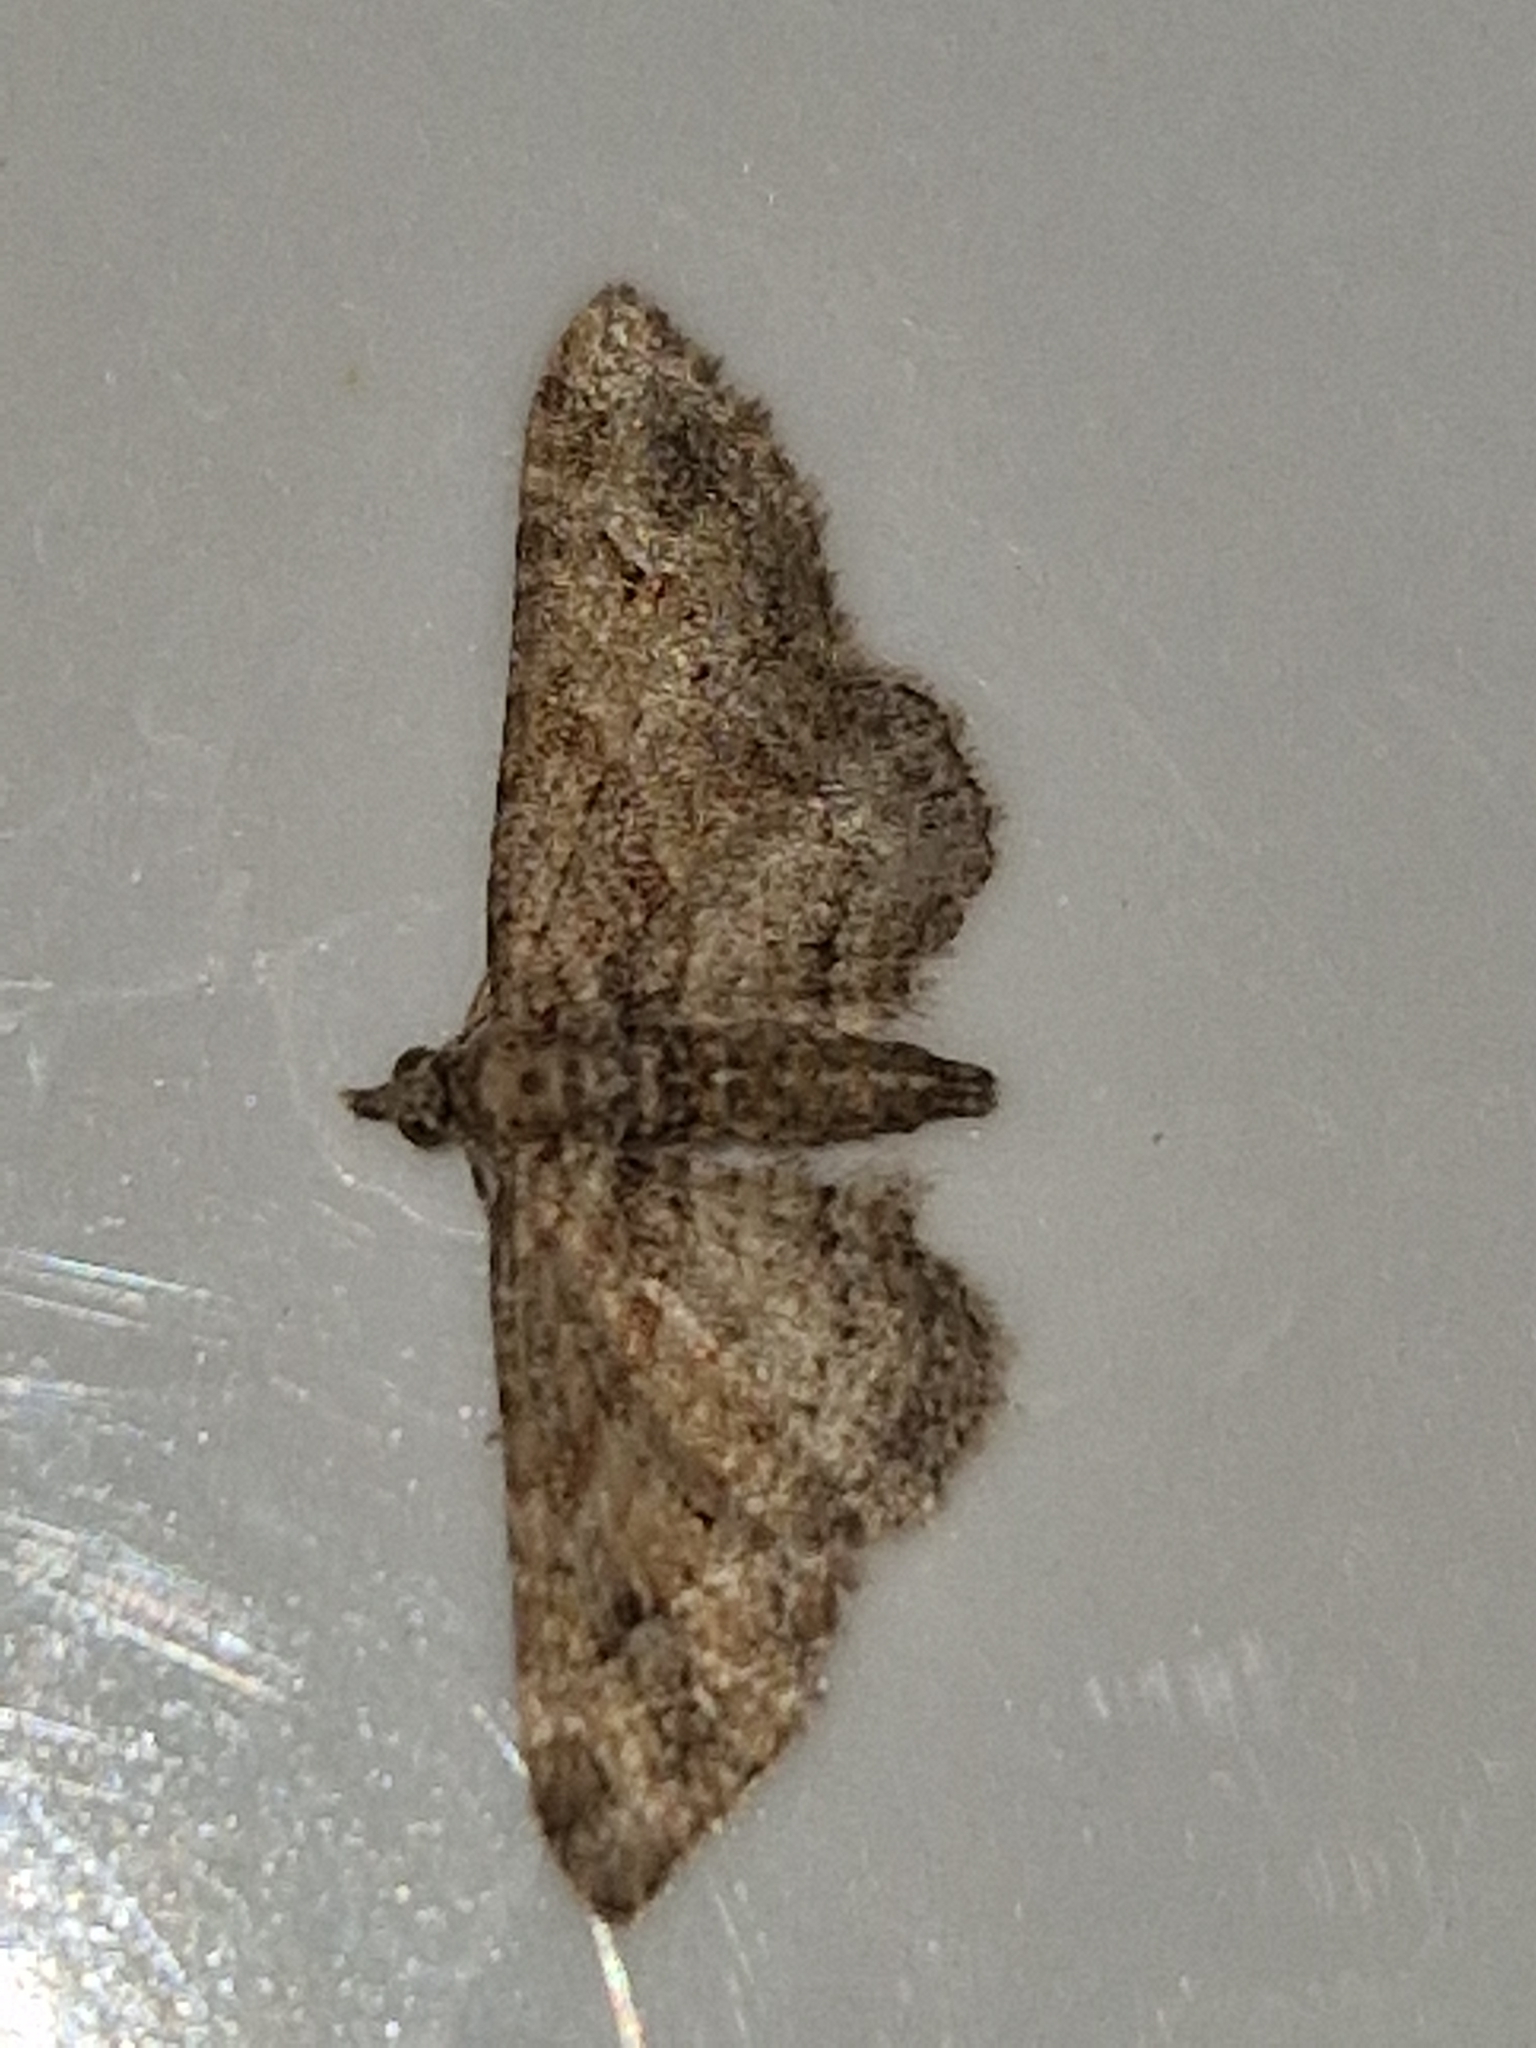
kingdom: Animalia
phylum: Arthropoda
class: Insecta
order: Lepidoptera
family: Geometridae
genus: Gymnoscelis
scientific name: Gymnoscelis rufifasciata
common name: Double-striped pug
